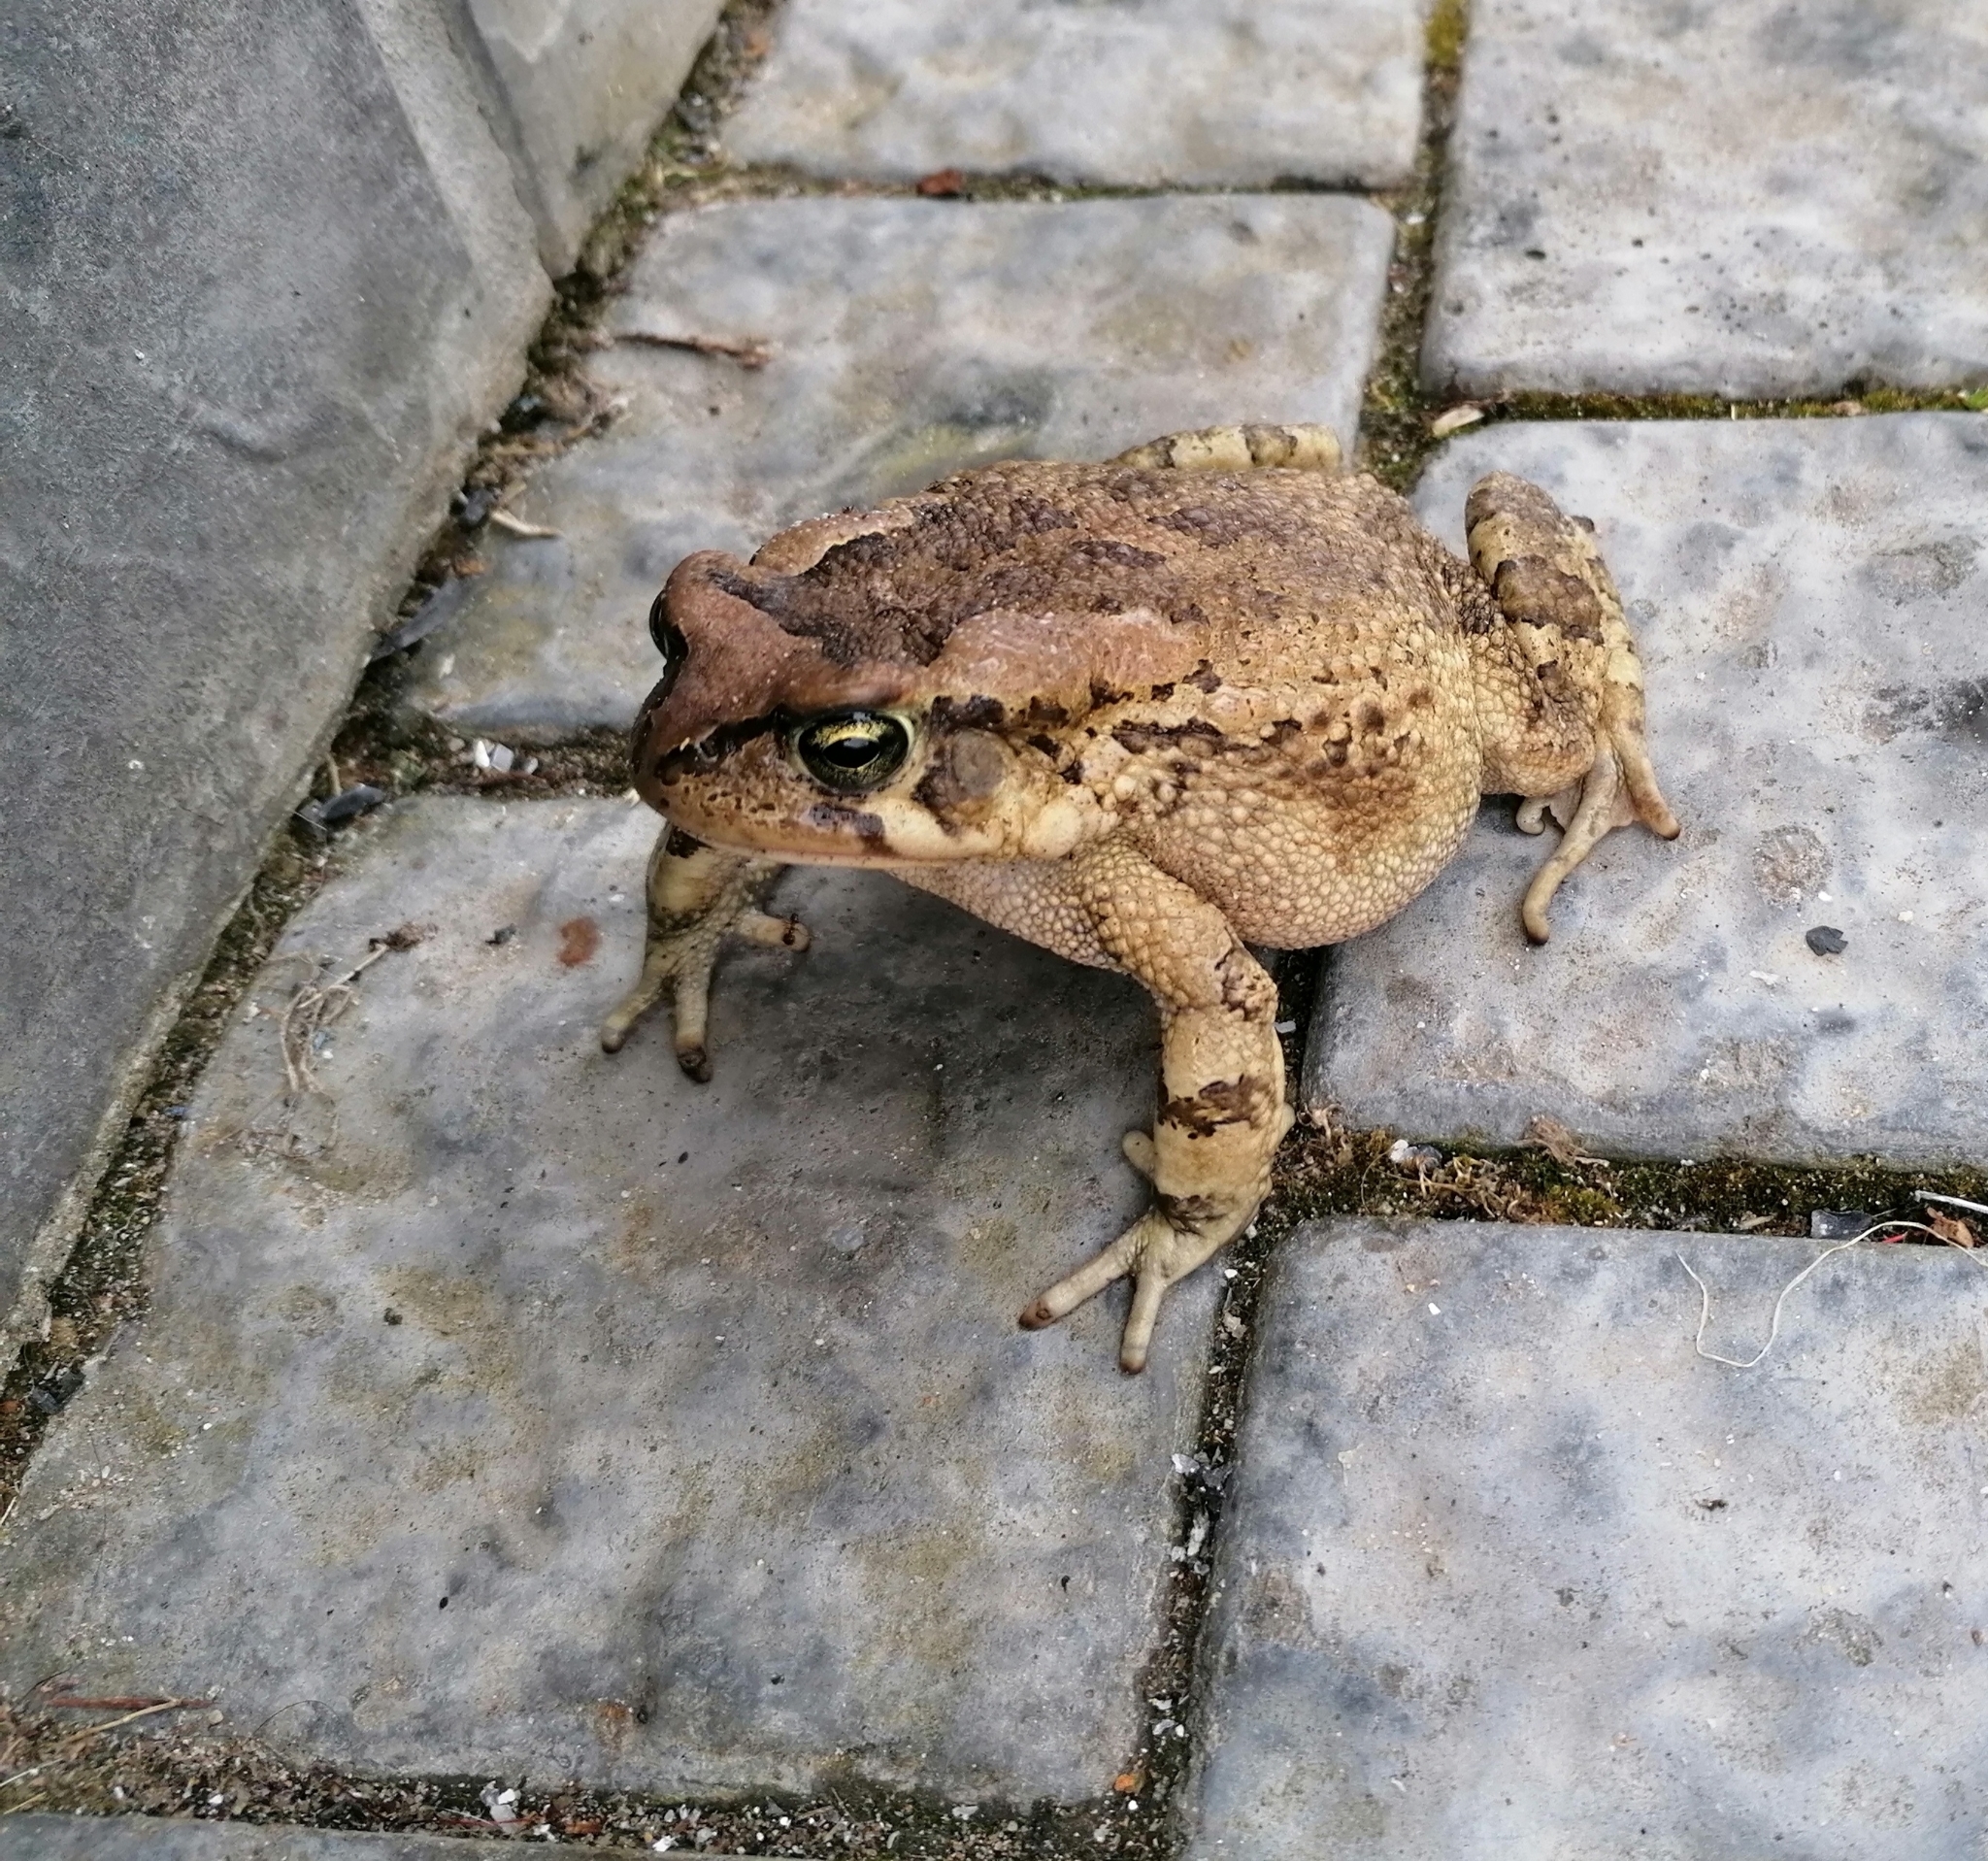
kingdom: Animalia
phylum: Chordata
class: Amphibia
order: Anura
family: Bufonidae
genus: Sclerophrys
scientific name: Sclerophrys capensis
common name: Ranger’s toad
